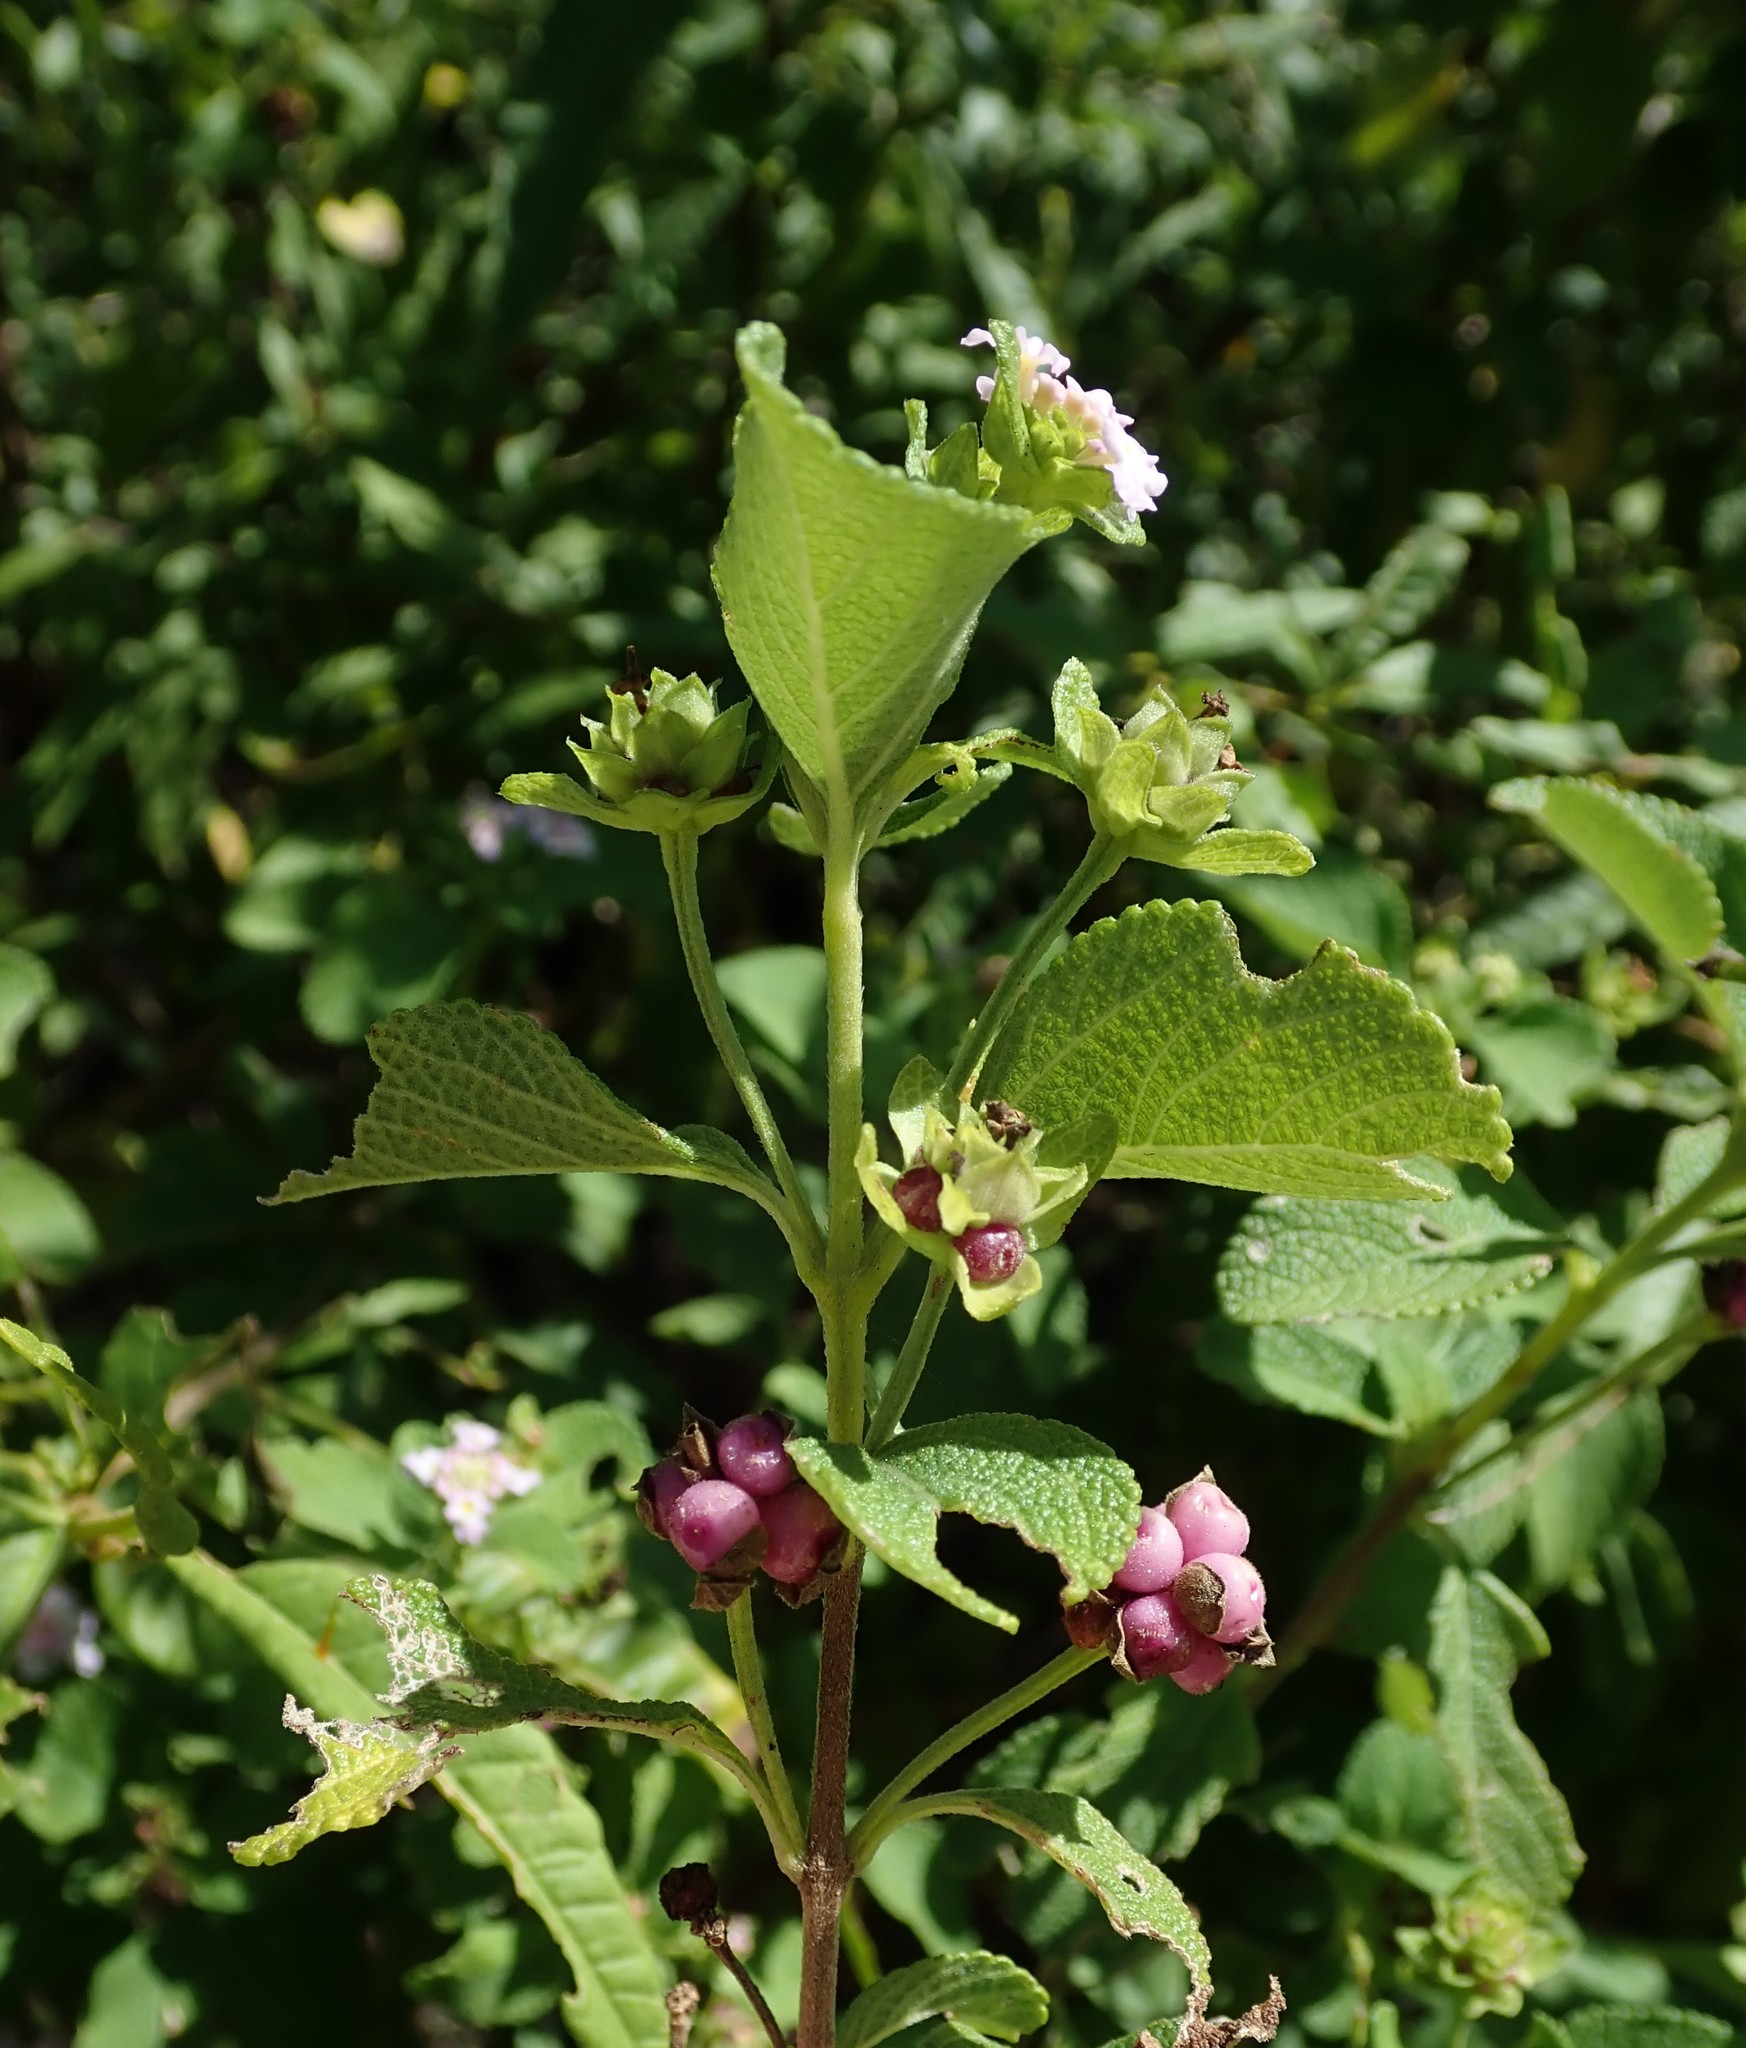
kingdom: Plantae
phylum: Tracheophyta
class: Magnoliopsida
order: Lamiales
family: Verbenaceae
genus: Lantana
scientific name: Lantana involucrata
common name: Black sage
